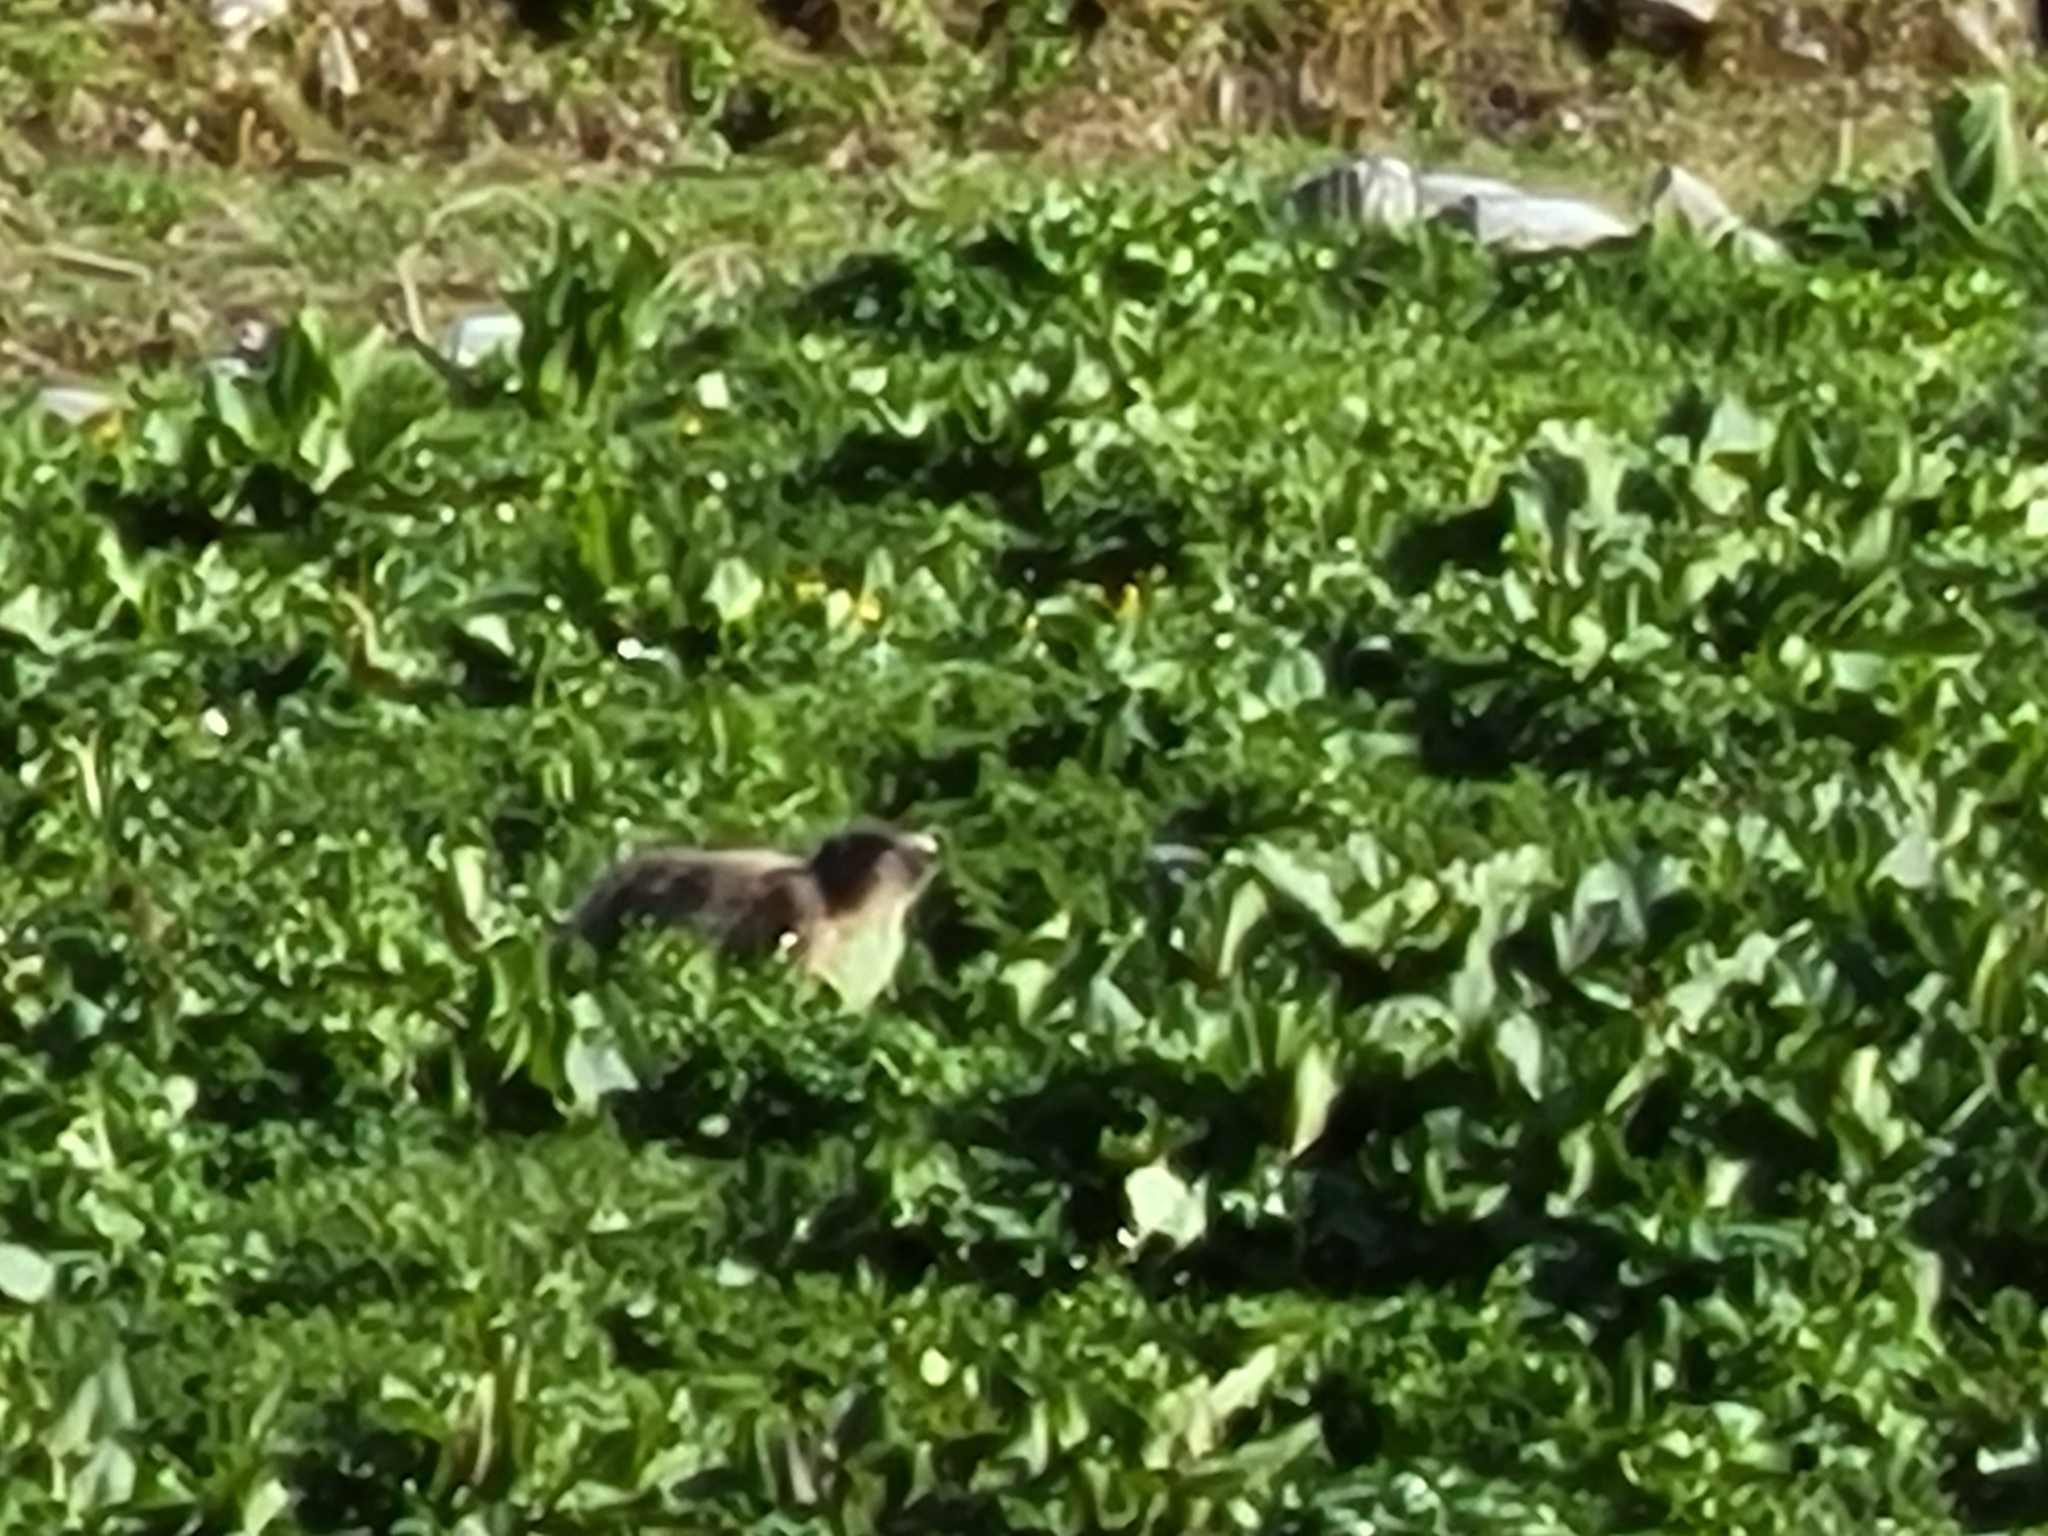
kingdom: Animalia
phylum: Chordata
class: Mammalia
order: Rodentia
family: Sciuridae
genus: Marmota
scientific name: Marmota marmota
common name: Alpine marmot
